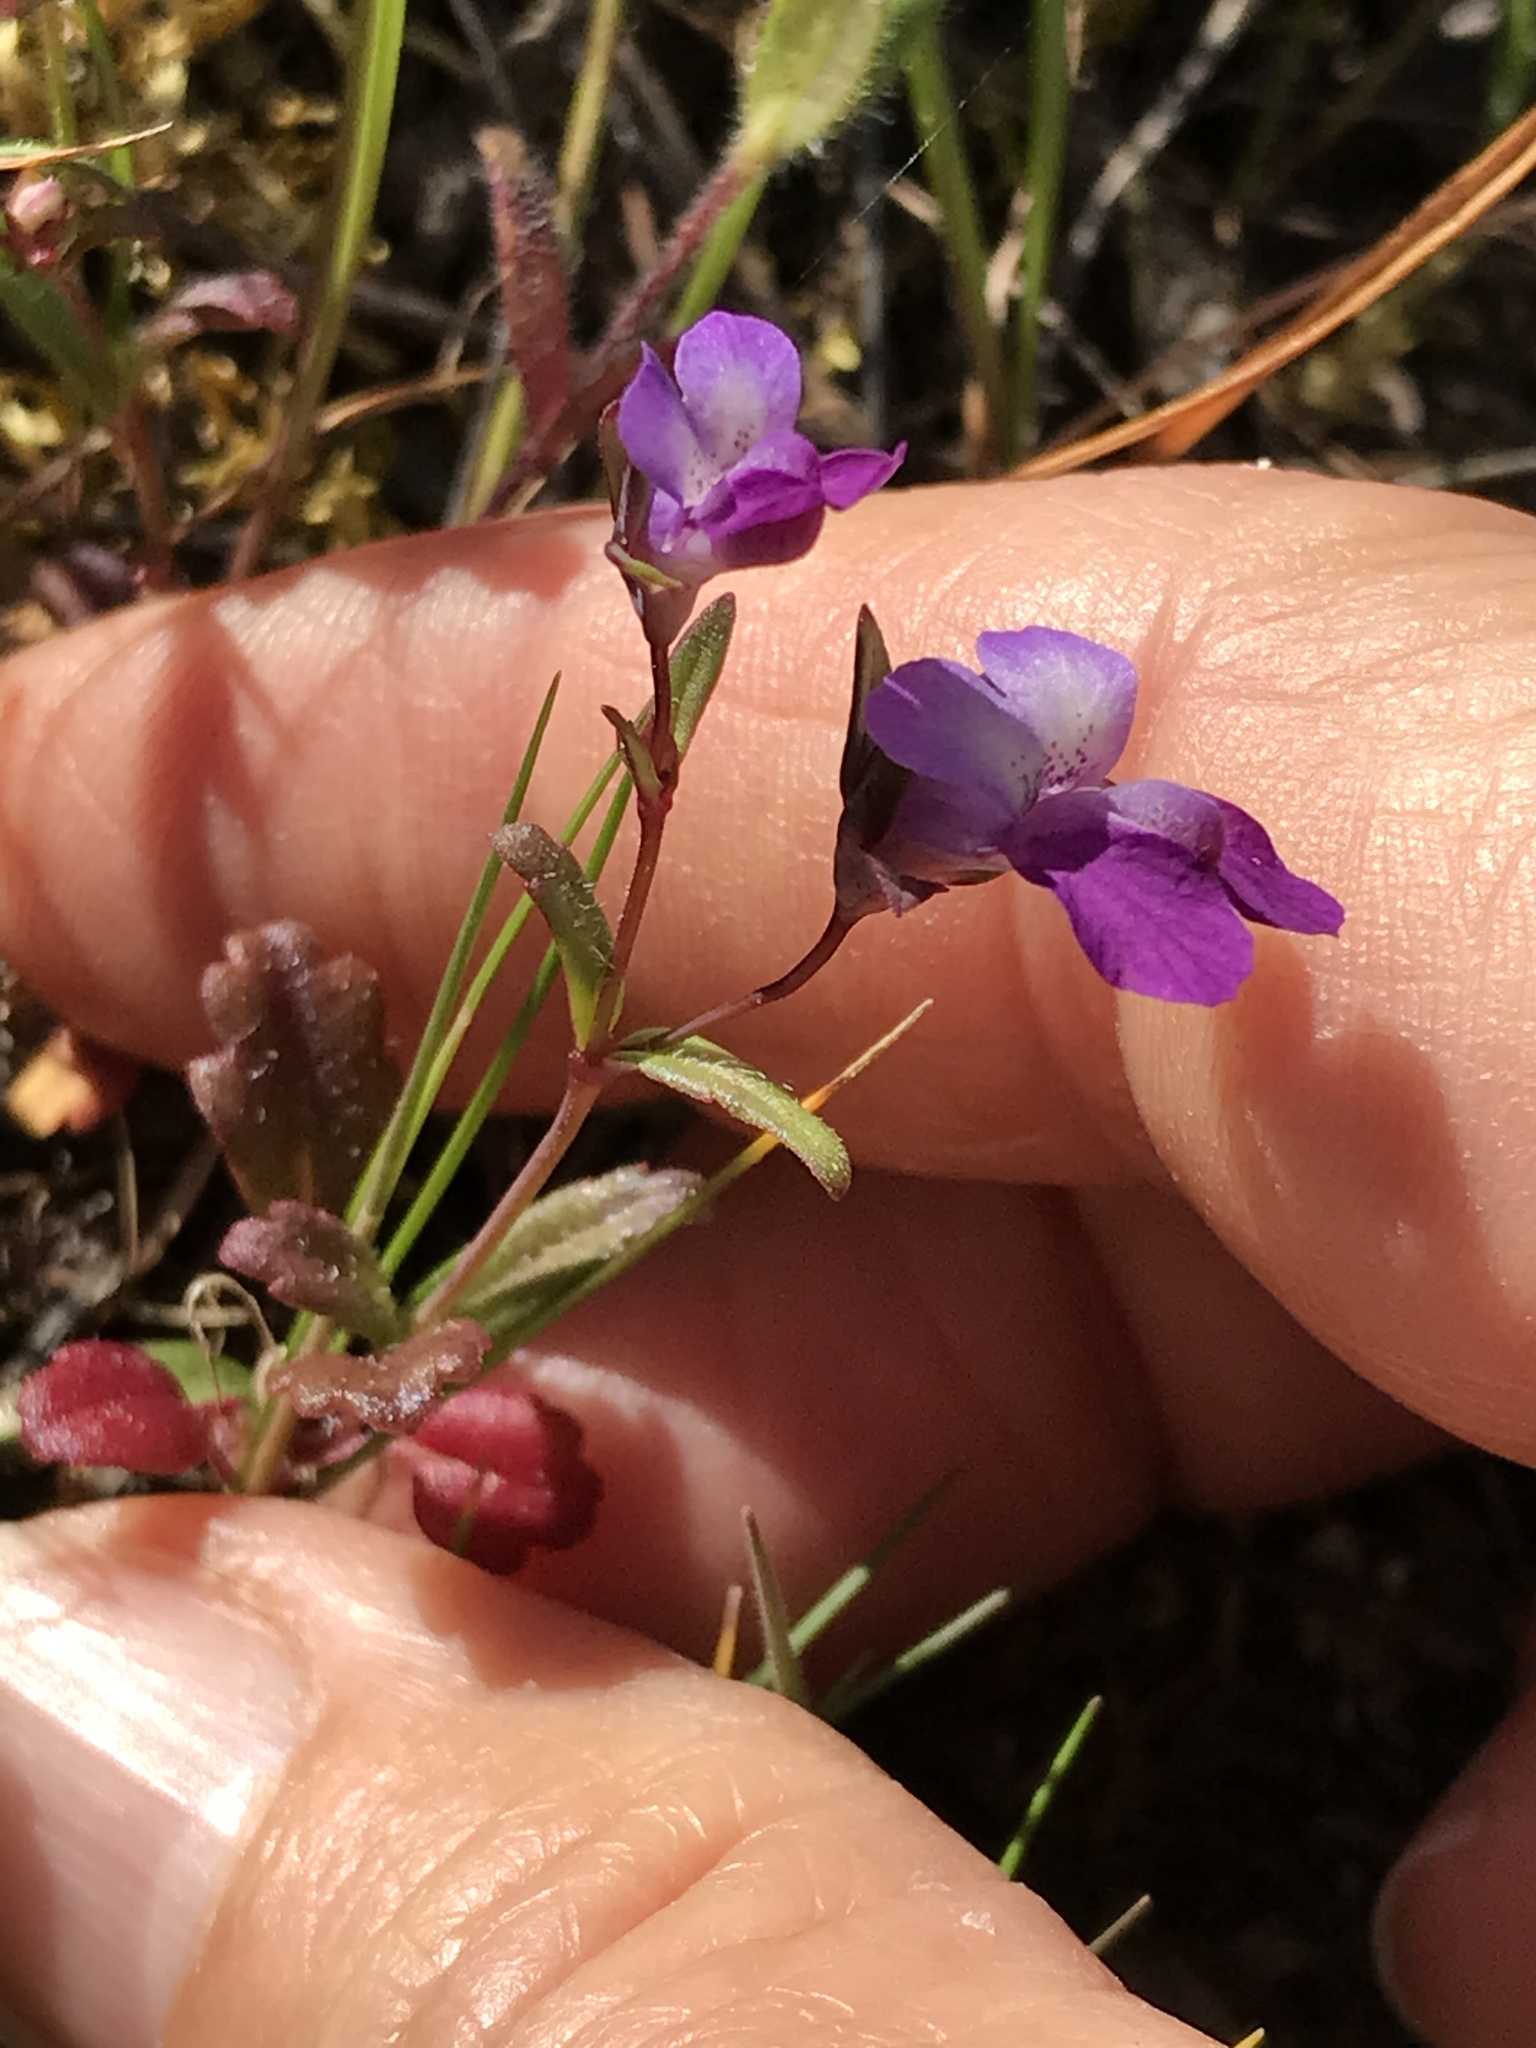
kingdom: Plantae
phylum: Tracheophyta
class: Magnoliopsida
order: Lamiales
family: Plantaginaceae
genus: Collinsia
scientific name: Collinsia sparsiflora
